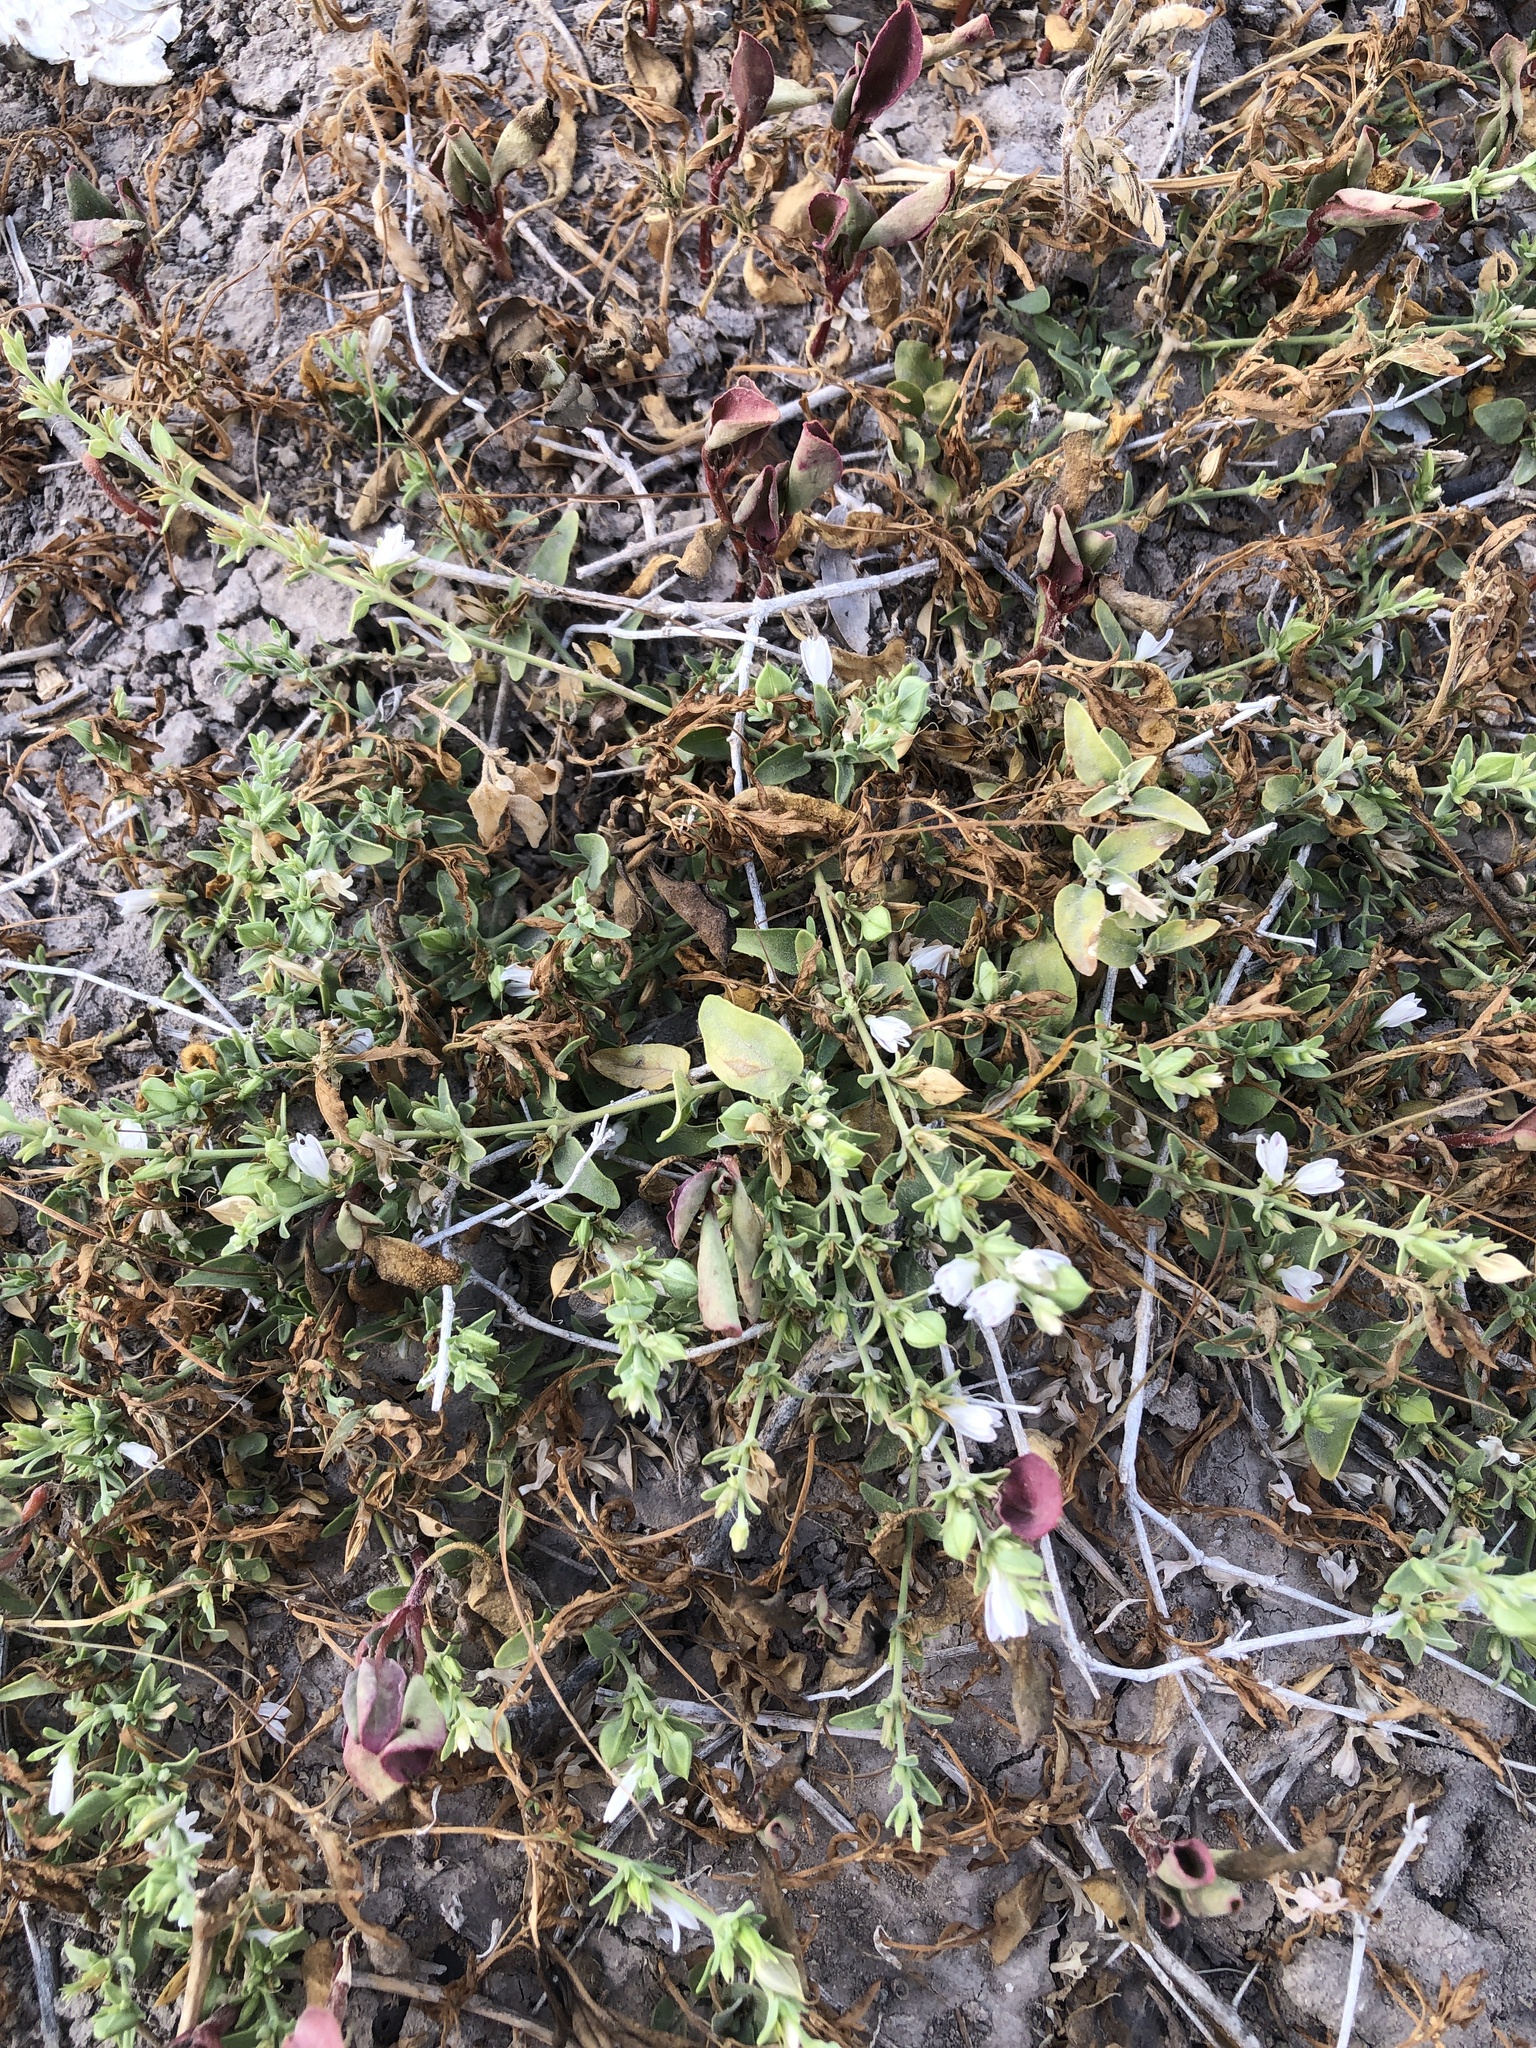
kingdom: Plantae
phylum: Tracheophyta
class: Magnoliopsida
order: Lamiales
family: Acanthaceae
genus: Carlowrightia
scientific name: Carlowrightia texana
